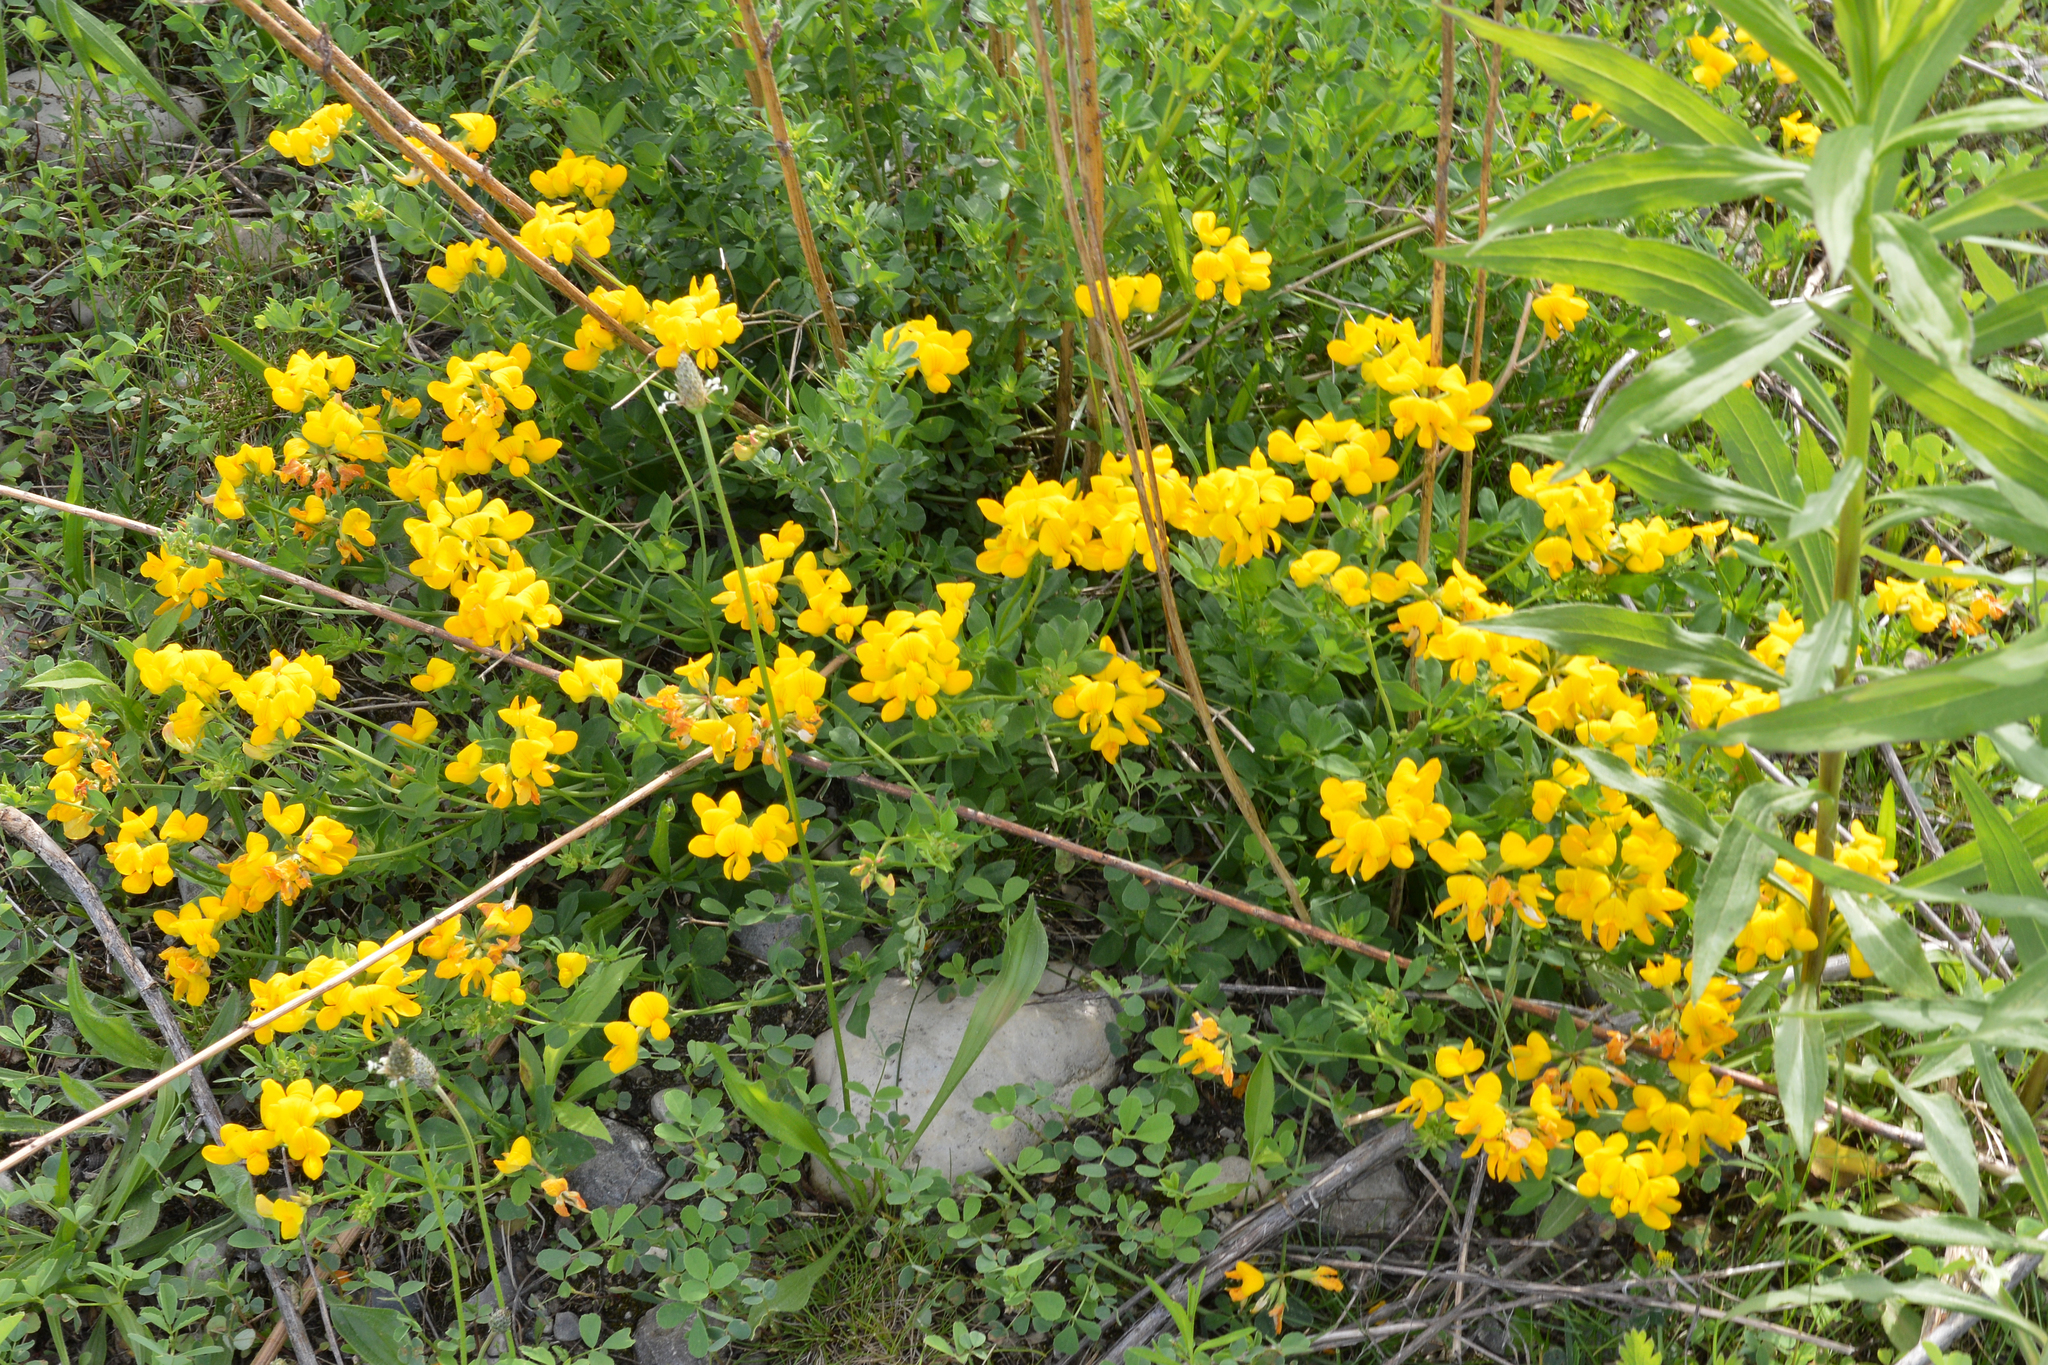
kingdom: Plantae
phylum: Tracheophyta
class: Magnoliopsida
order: Fabales
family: Fabaceae
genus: Lotus
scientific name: Lotus corniculatus
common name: Common bird's-foot-trefoil
